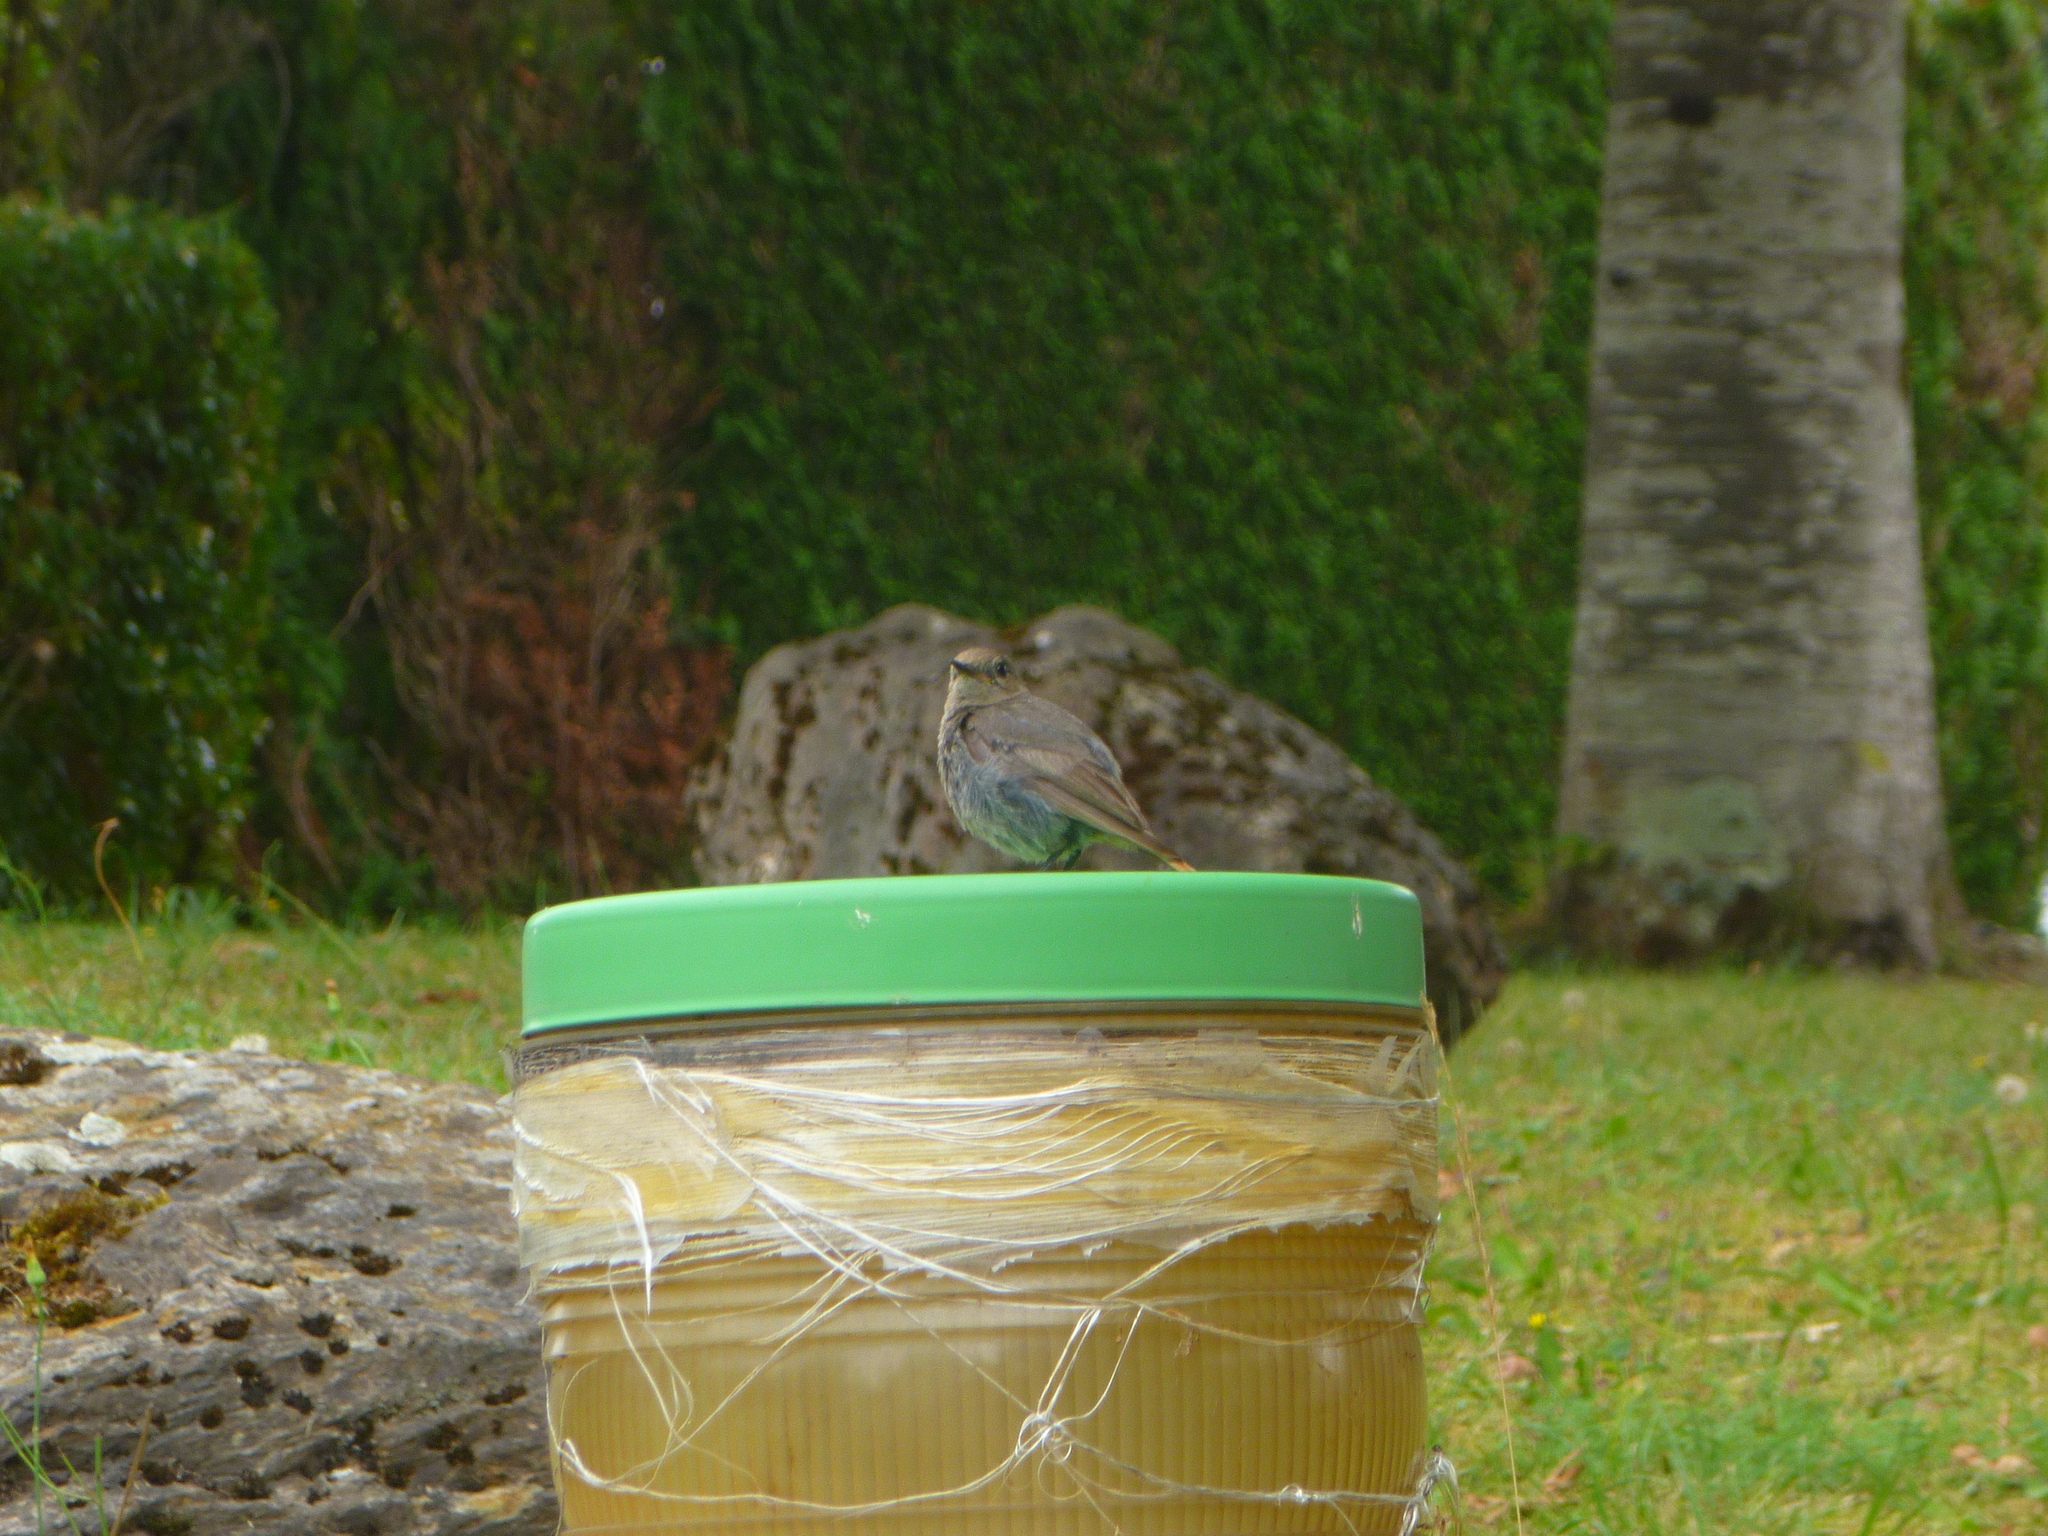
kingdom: Animalia
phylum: Chordata
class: Aves
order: Passeriformes
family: Muscicapidae
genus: Phoenicurus
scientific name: Phoenicurus ochruros
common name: Black redstart
